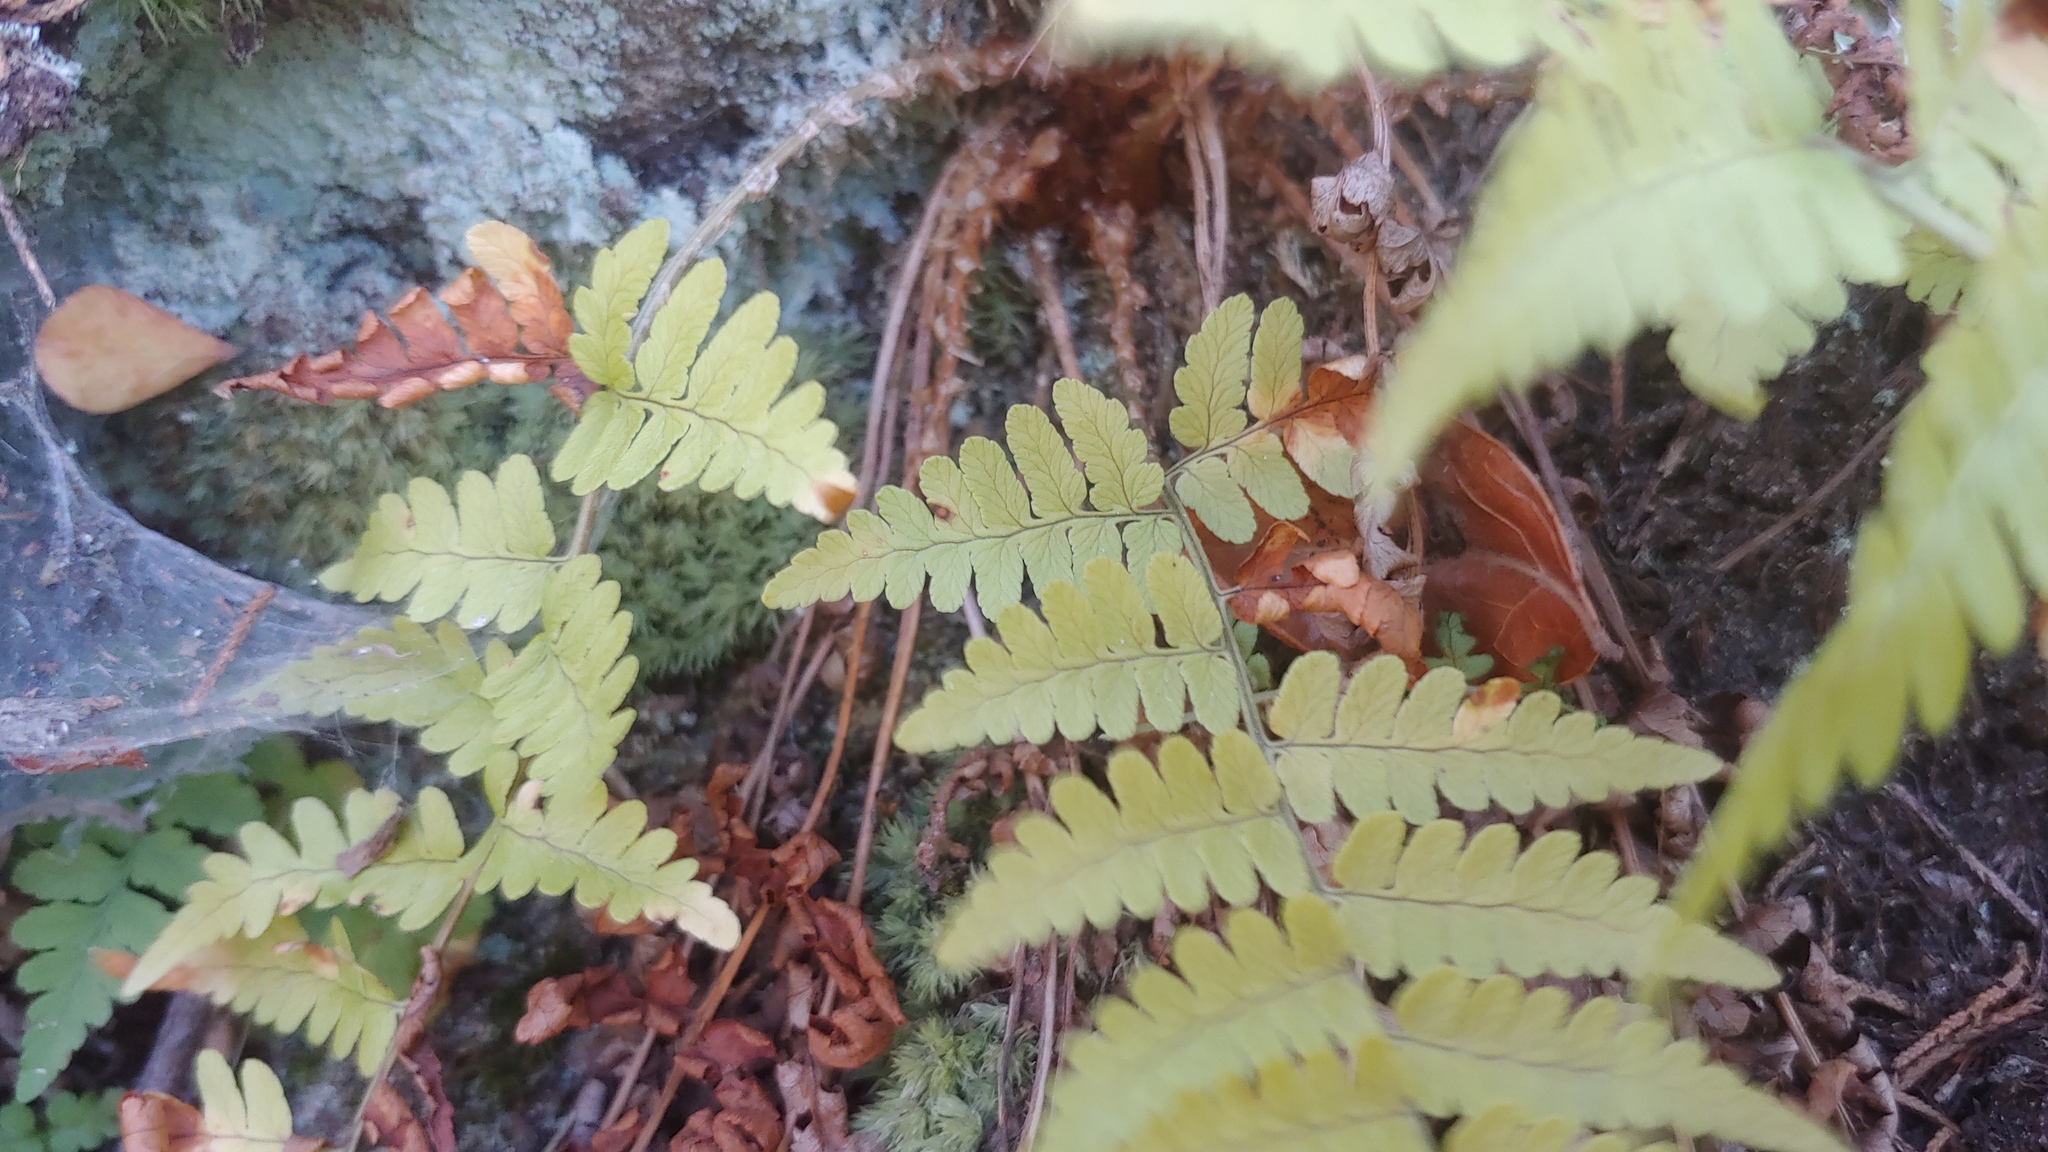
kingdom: Plantae
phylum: Tracheophyta
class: Polypodiopsida
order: Polypodiales
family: Dryopteridaceae
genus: Dryopteris
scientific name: Dryopteris marginalis
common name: Marginal wood fern
